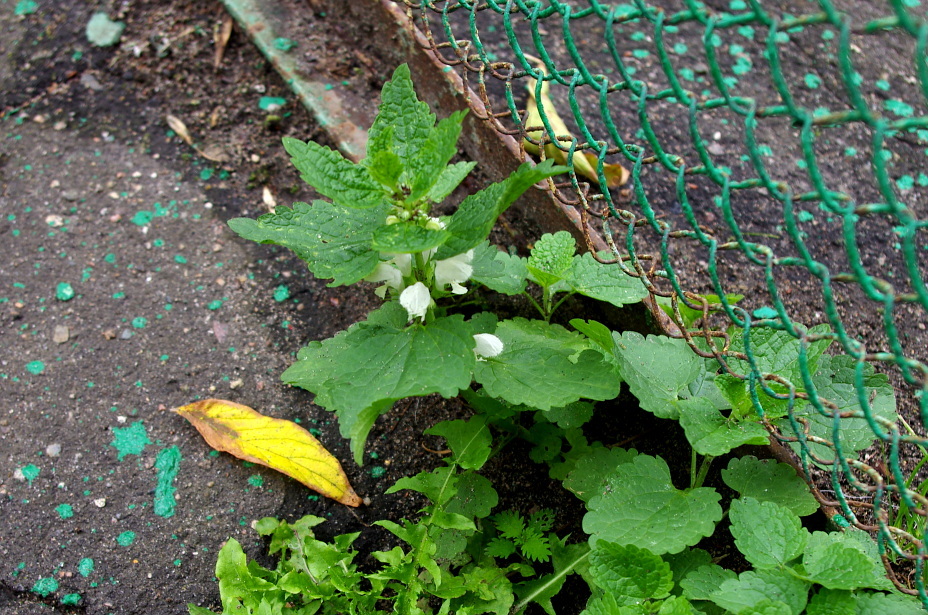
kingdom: Plantae
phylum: Tracheophyta
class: Magnoliopsida
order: Lamiales
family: Lamiaceae
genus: Lamium
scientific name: Lamium album
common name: White dead-nettle
